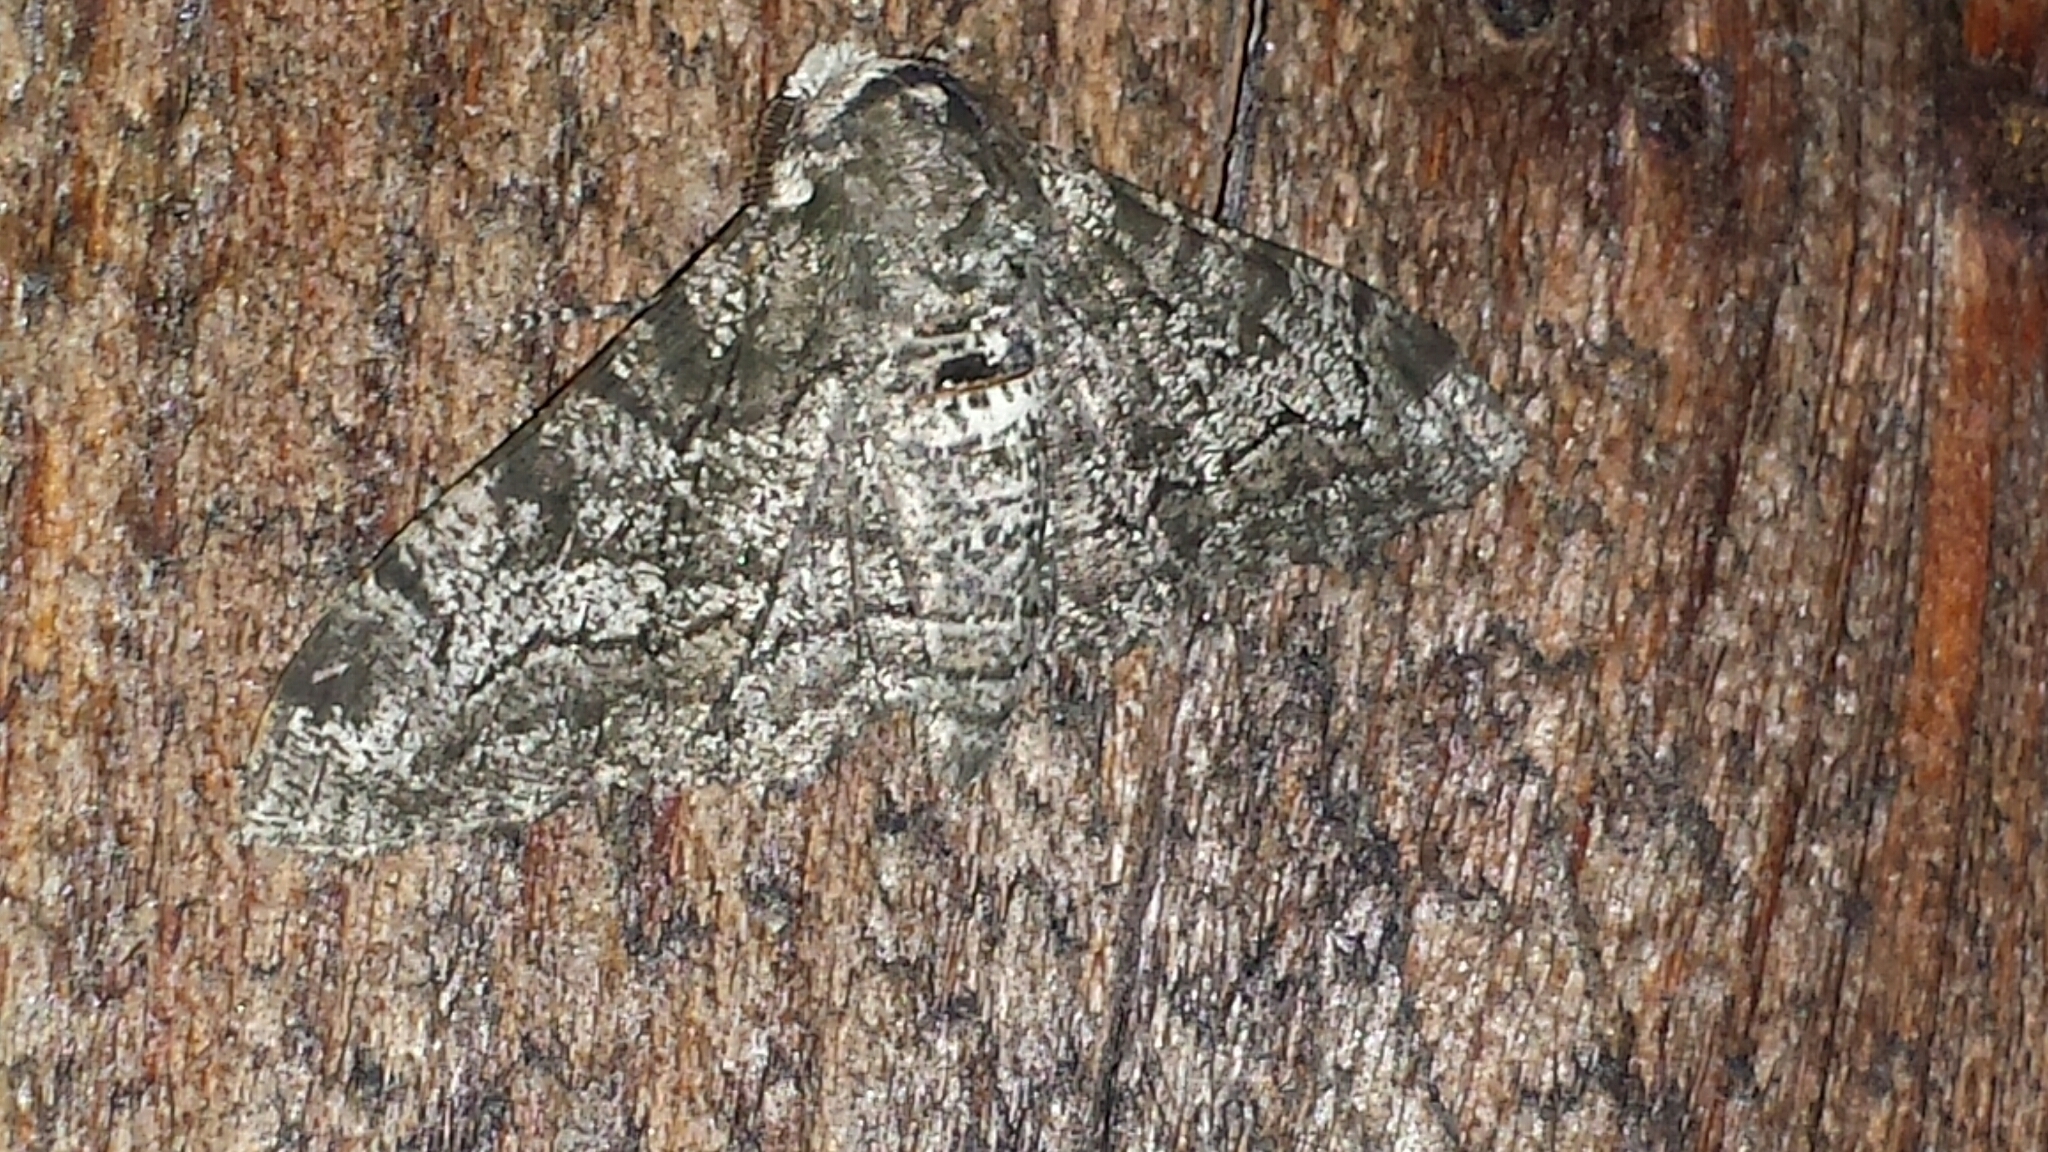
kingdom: Animalia
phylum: Arthropoda
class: Insecta
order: Lepidoptera
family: Geometridae
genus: Biston
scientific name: Biston betularia
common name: Peppered moth
